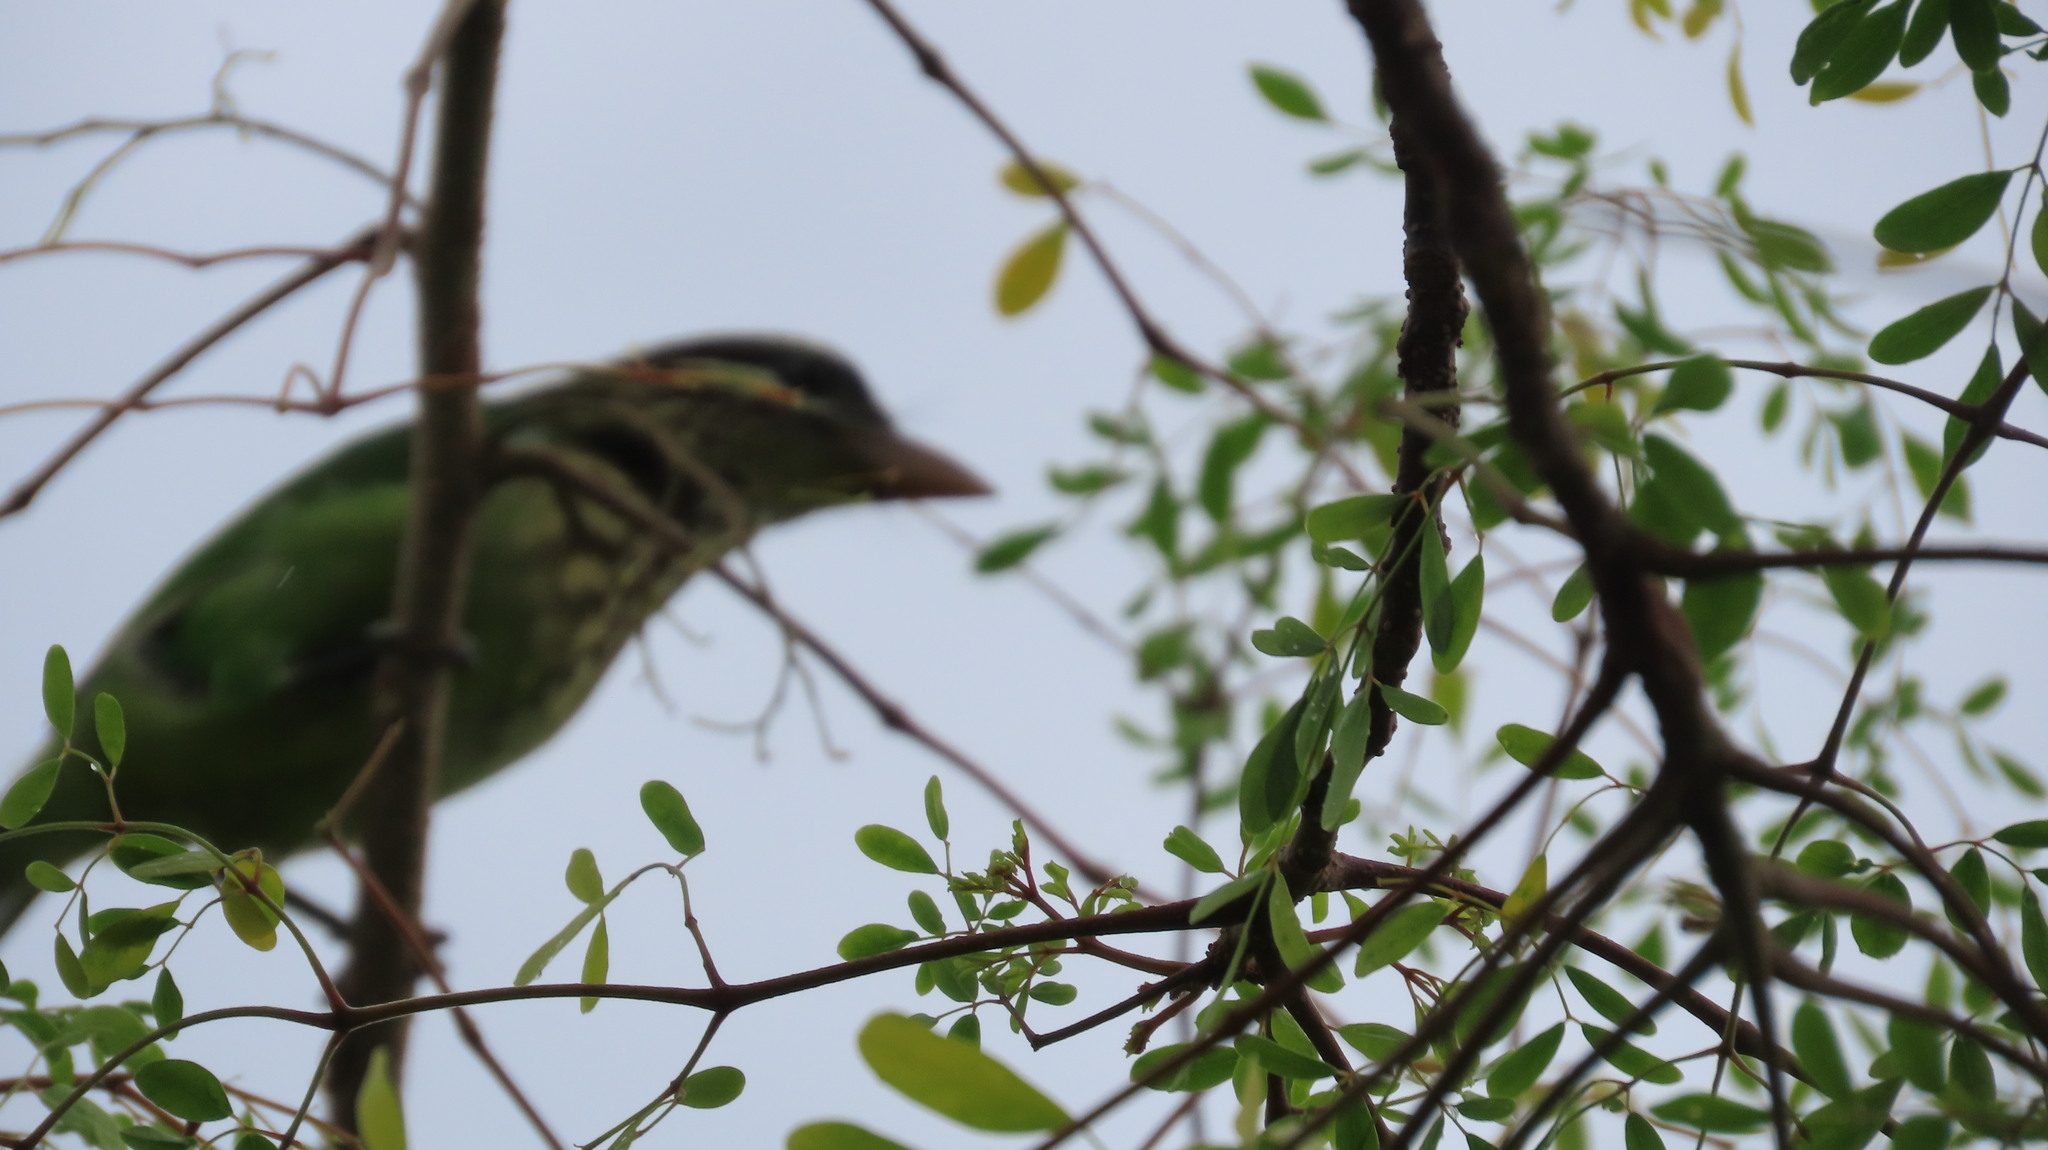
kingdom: Animalia
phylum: Chordata
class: Aves
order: Piciformes
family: Megalaimidae
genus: Psilopogon
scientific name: Psilopogon viridis
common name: White-cheeked barbet
